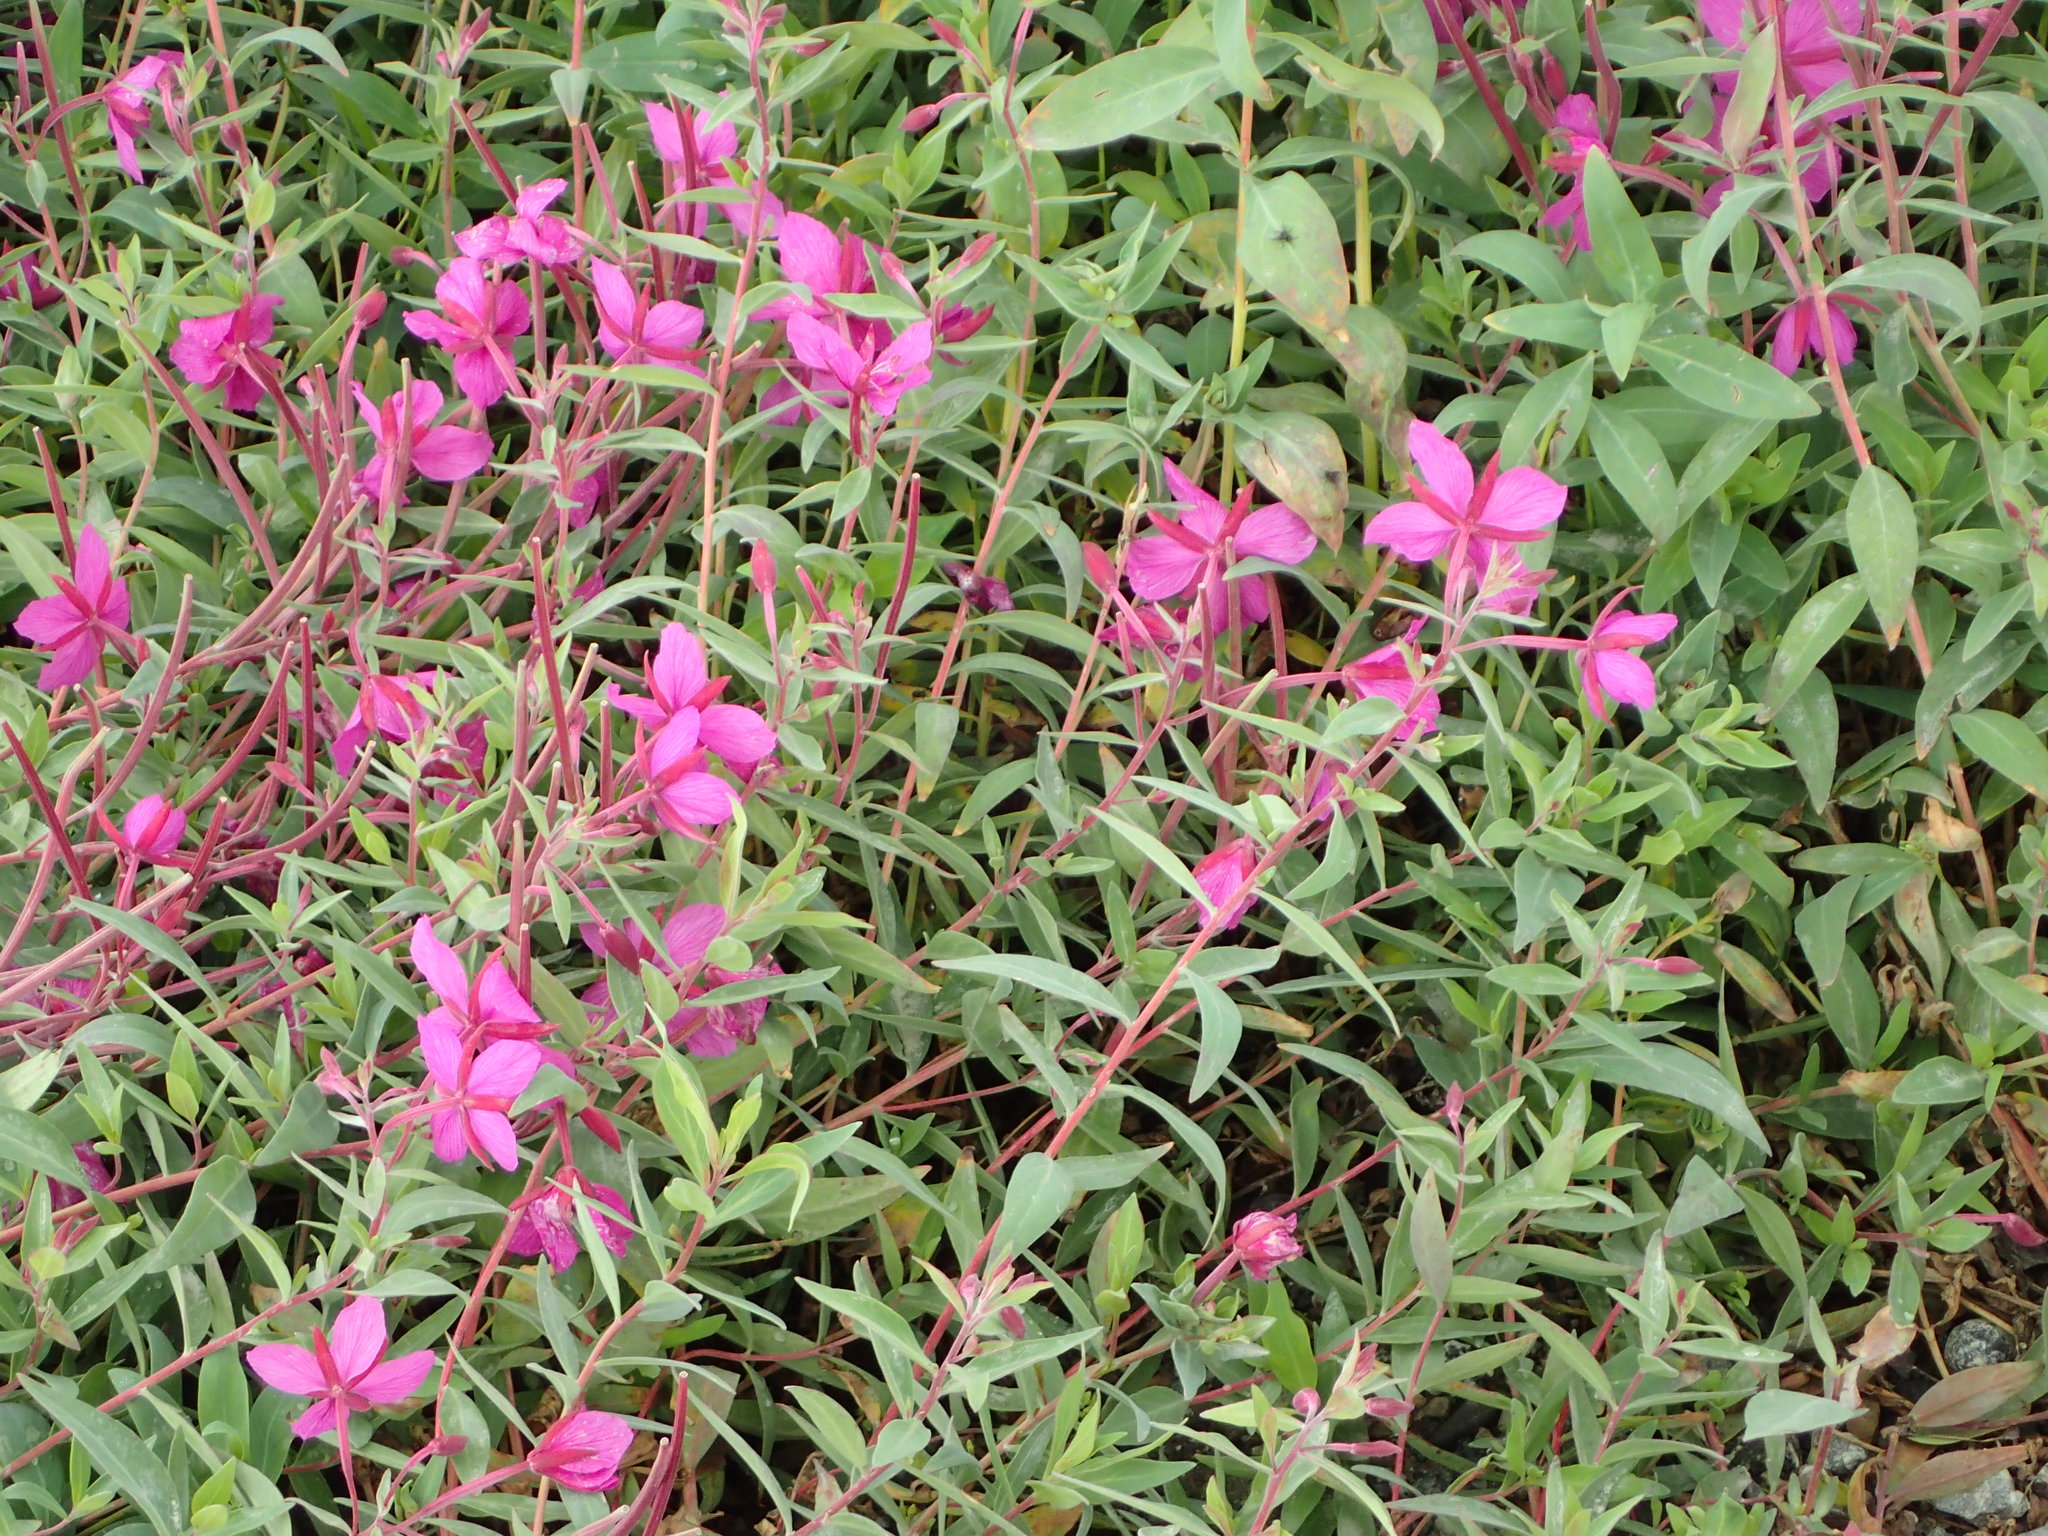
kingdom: Plantae
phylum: Tracheophyta
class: Magnoliopsida
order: Myrtales
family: Onagraceae
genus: Chamaenerion
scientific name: Chamaenerion latifolium
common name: Dwarf fireweed
